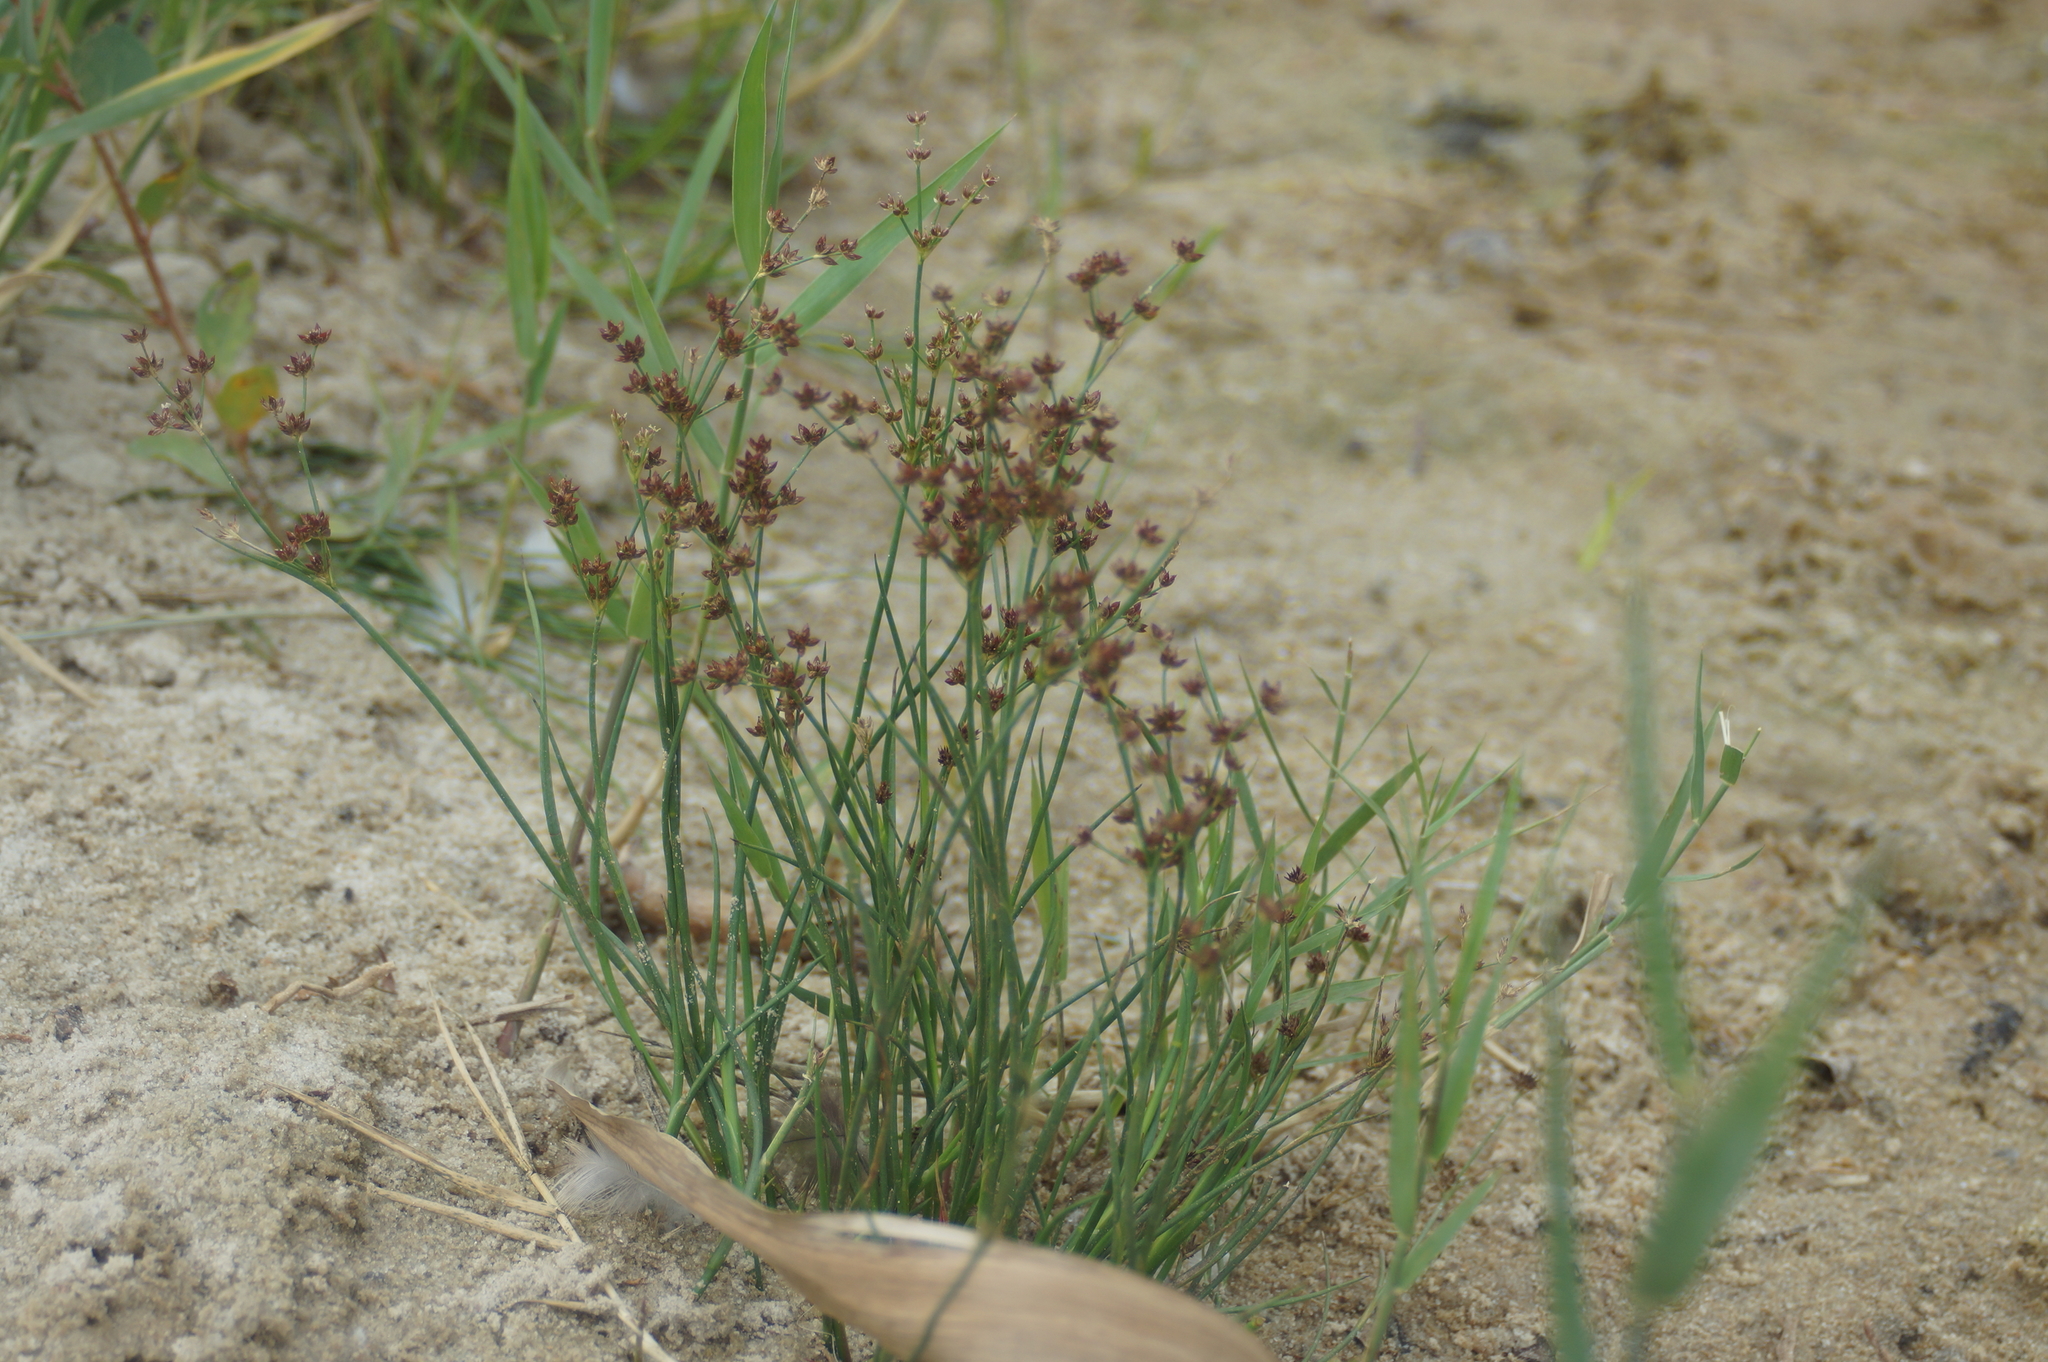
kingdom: Plantae
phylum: Tracheophyta
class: Liliopsida
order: Poales
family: Juncaceae
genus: Juncus
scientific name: Juncus articulatus
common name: Jointed rush
